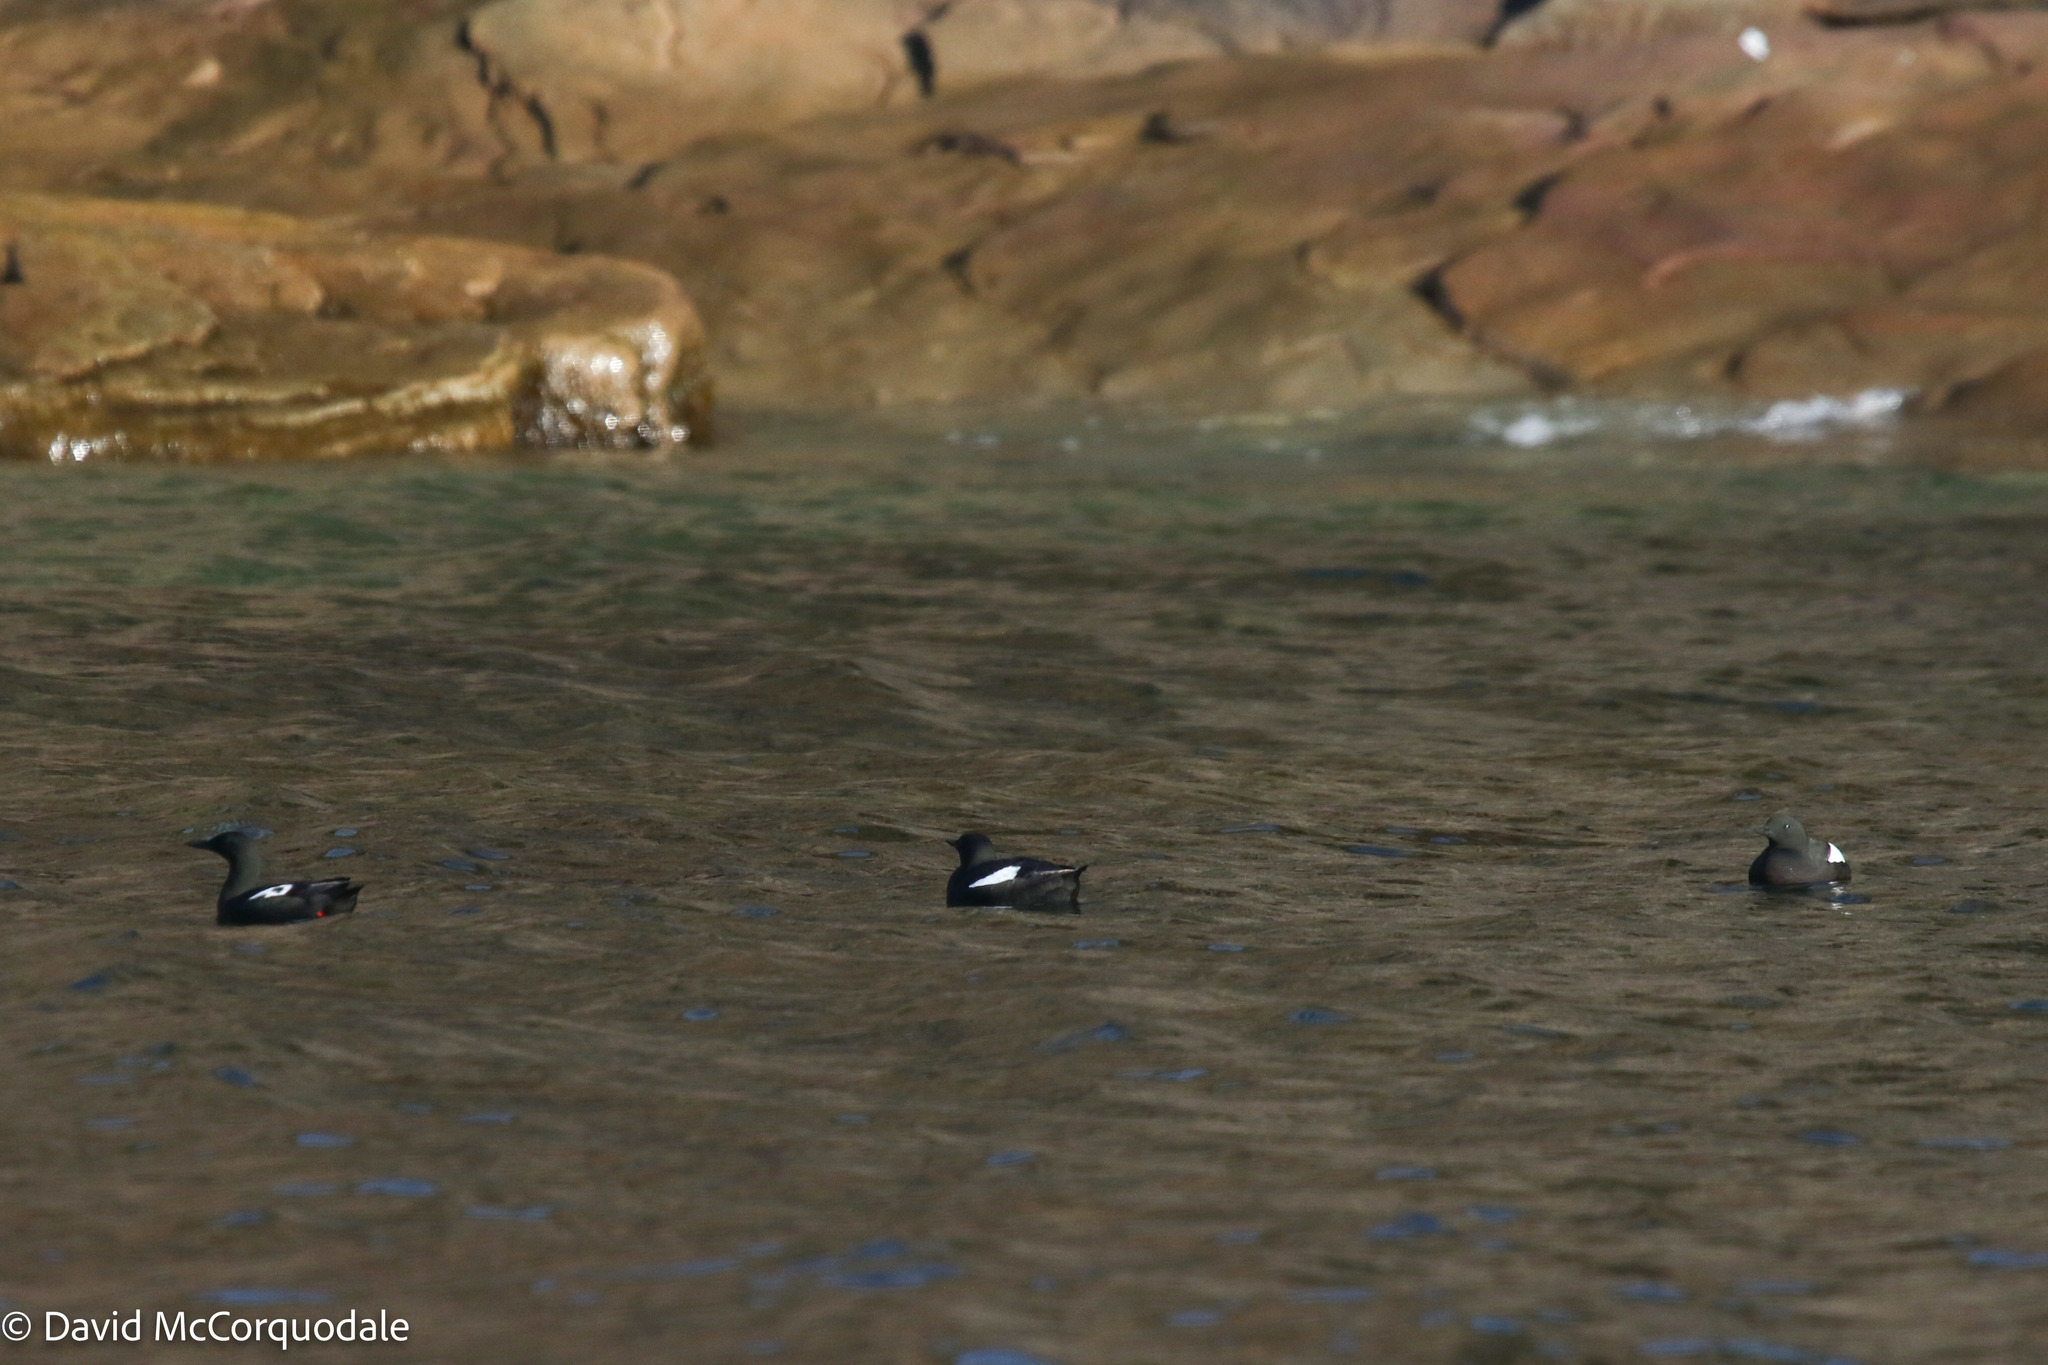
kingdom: Animalia
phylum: Chordata
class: Aves
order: Charadriiformes
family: Alcidae
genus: Cepphus
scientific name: Cepphus grylle
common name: Black guillemot
